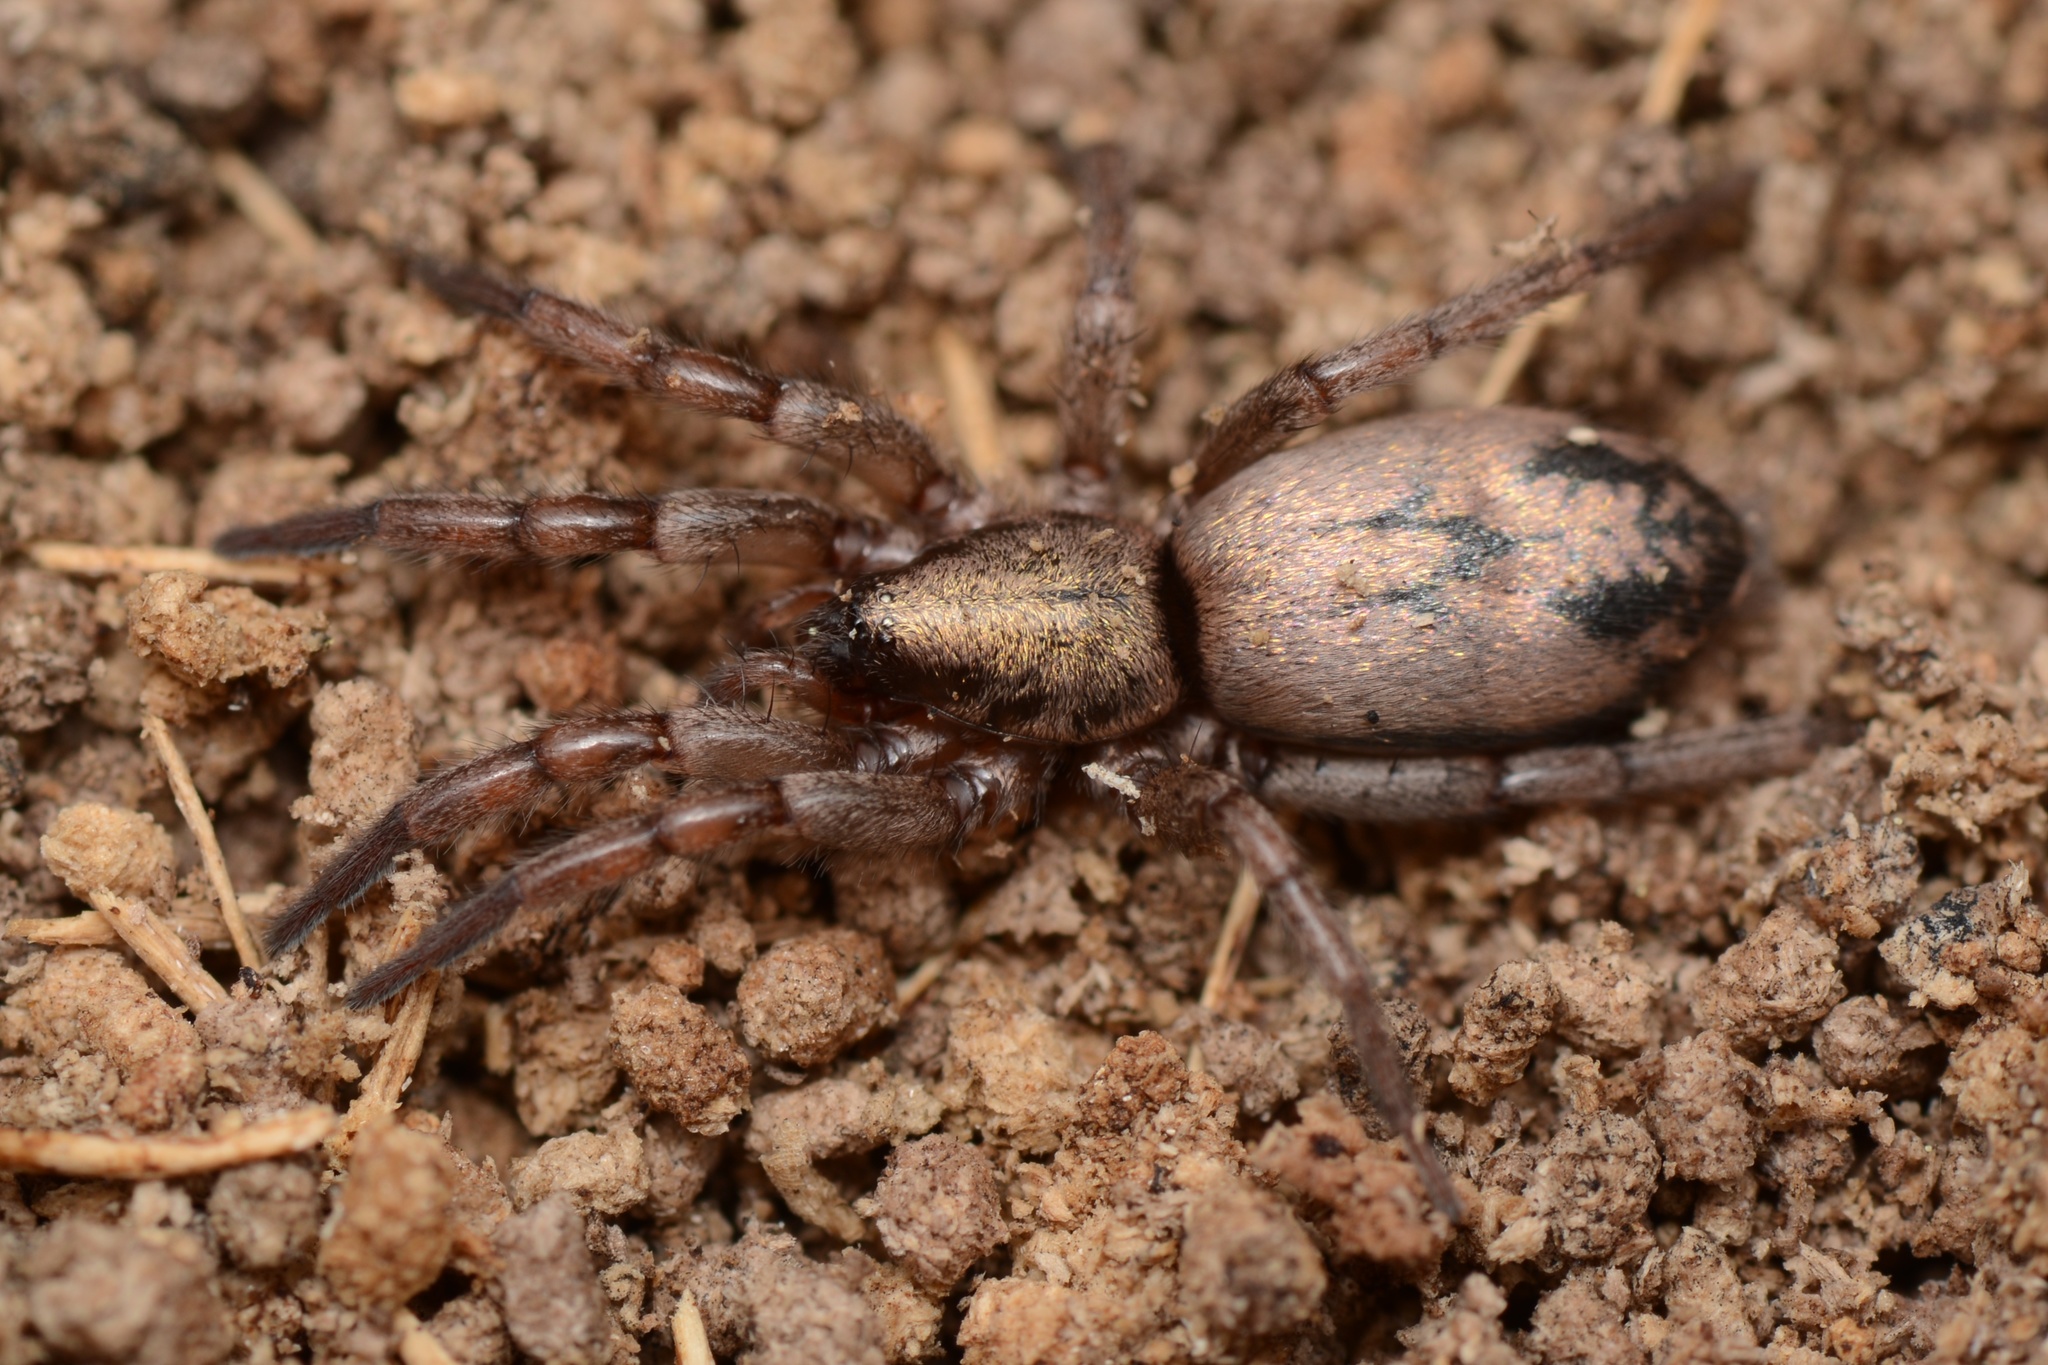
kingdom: Animalia
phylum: Arthropoda
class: Arachnida
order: Araneae
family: Gnaphosidae
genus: Scotophaeus
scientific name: Scotophaeus pretiosus
